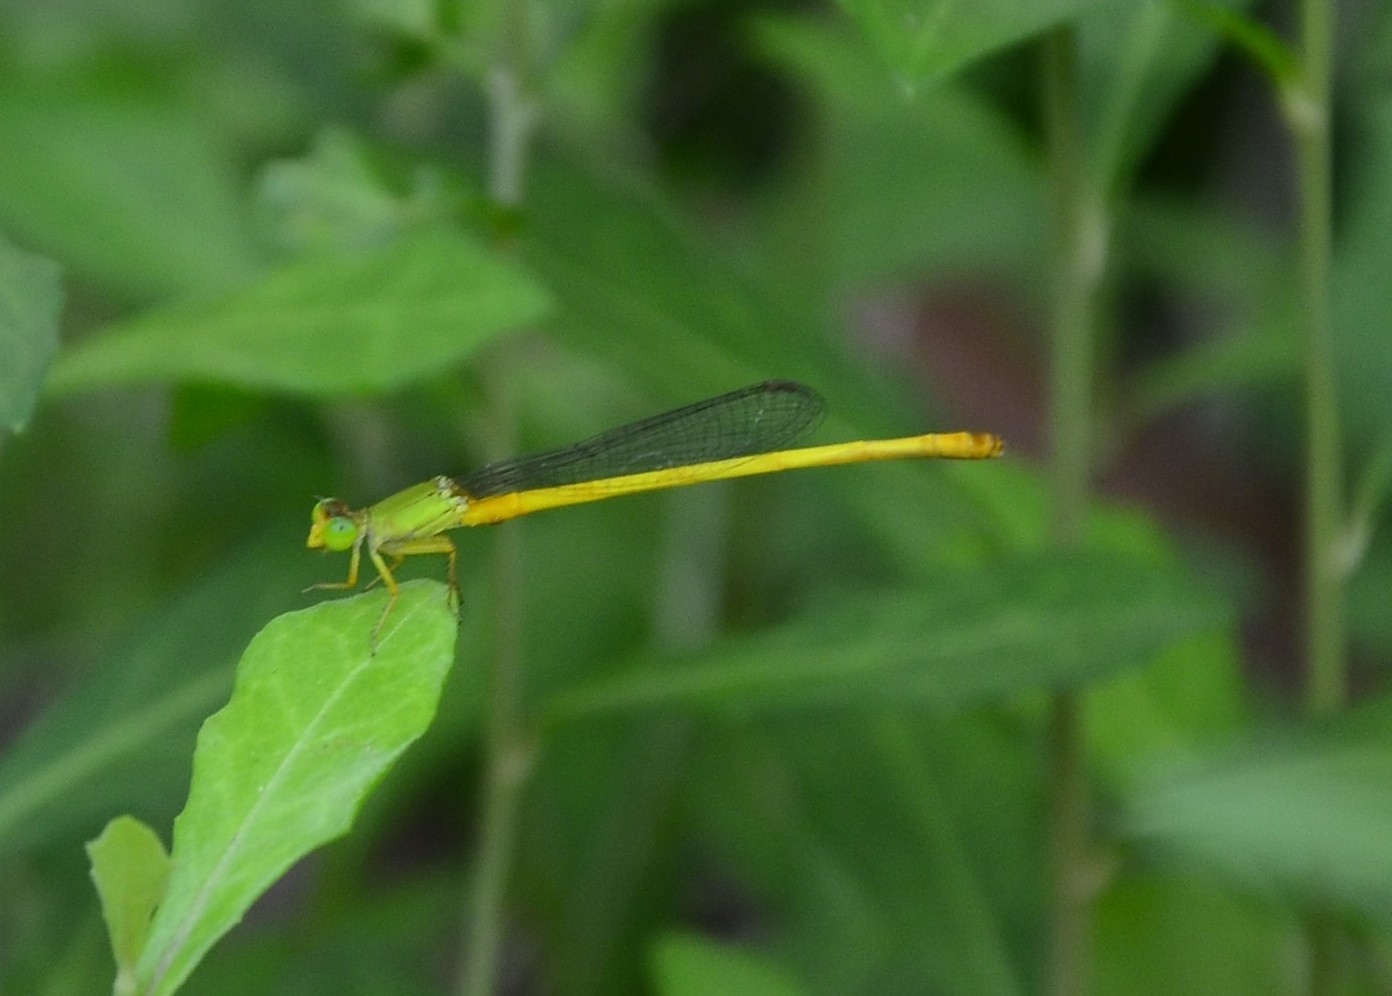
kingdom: Animalia
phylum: Arthropoda
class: Insecta
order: Odonata
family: Coenagrionidae
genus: Ceriagrion
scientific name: Ceriagrion coromandelianum
